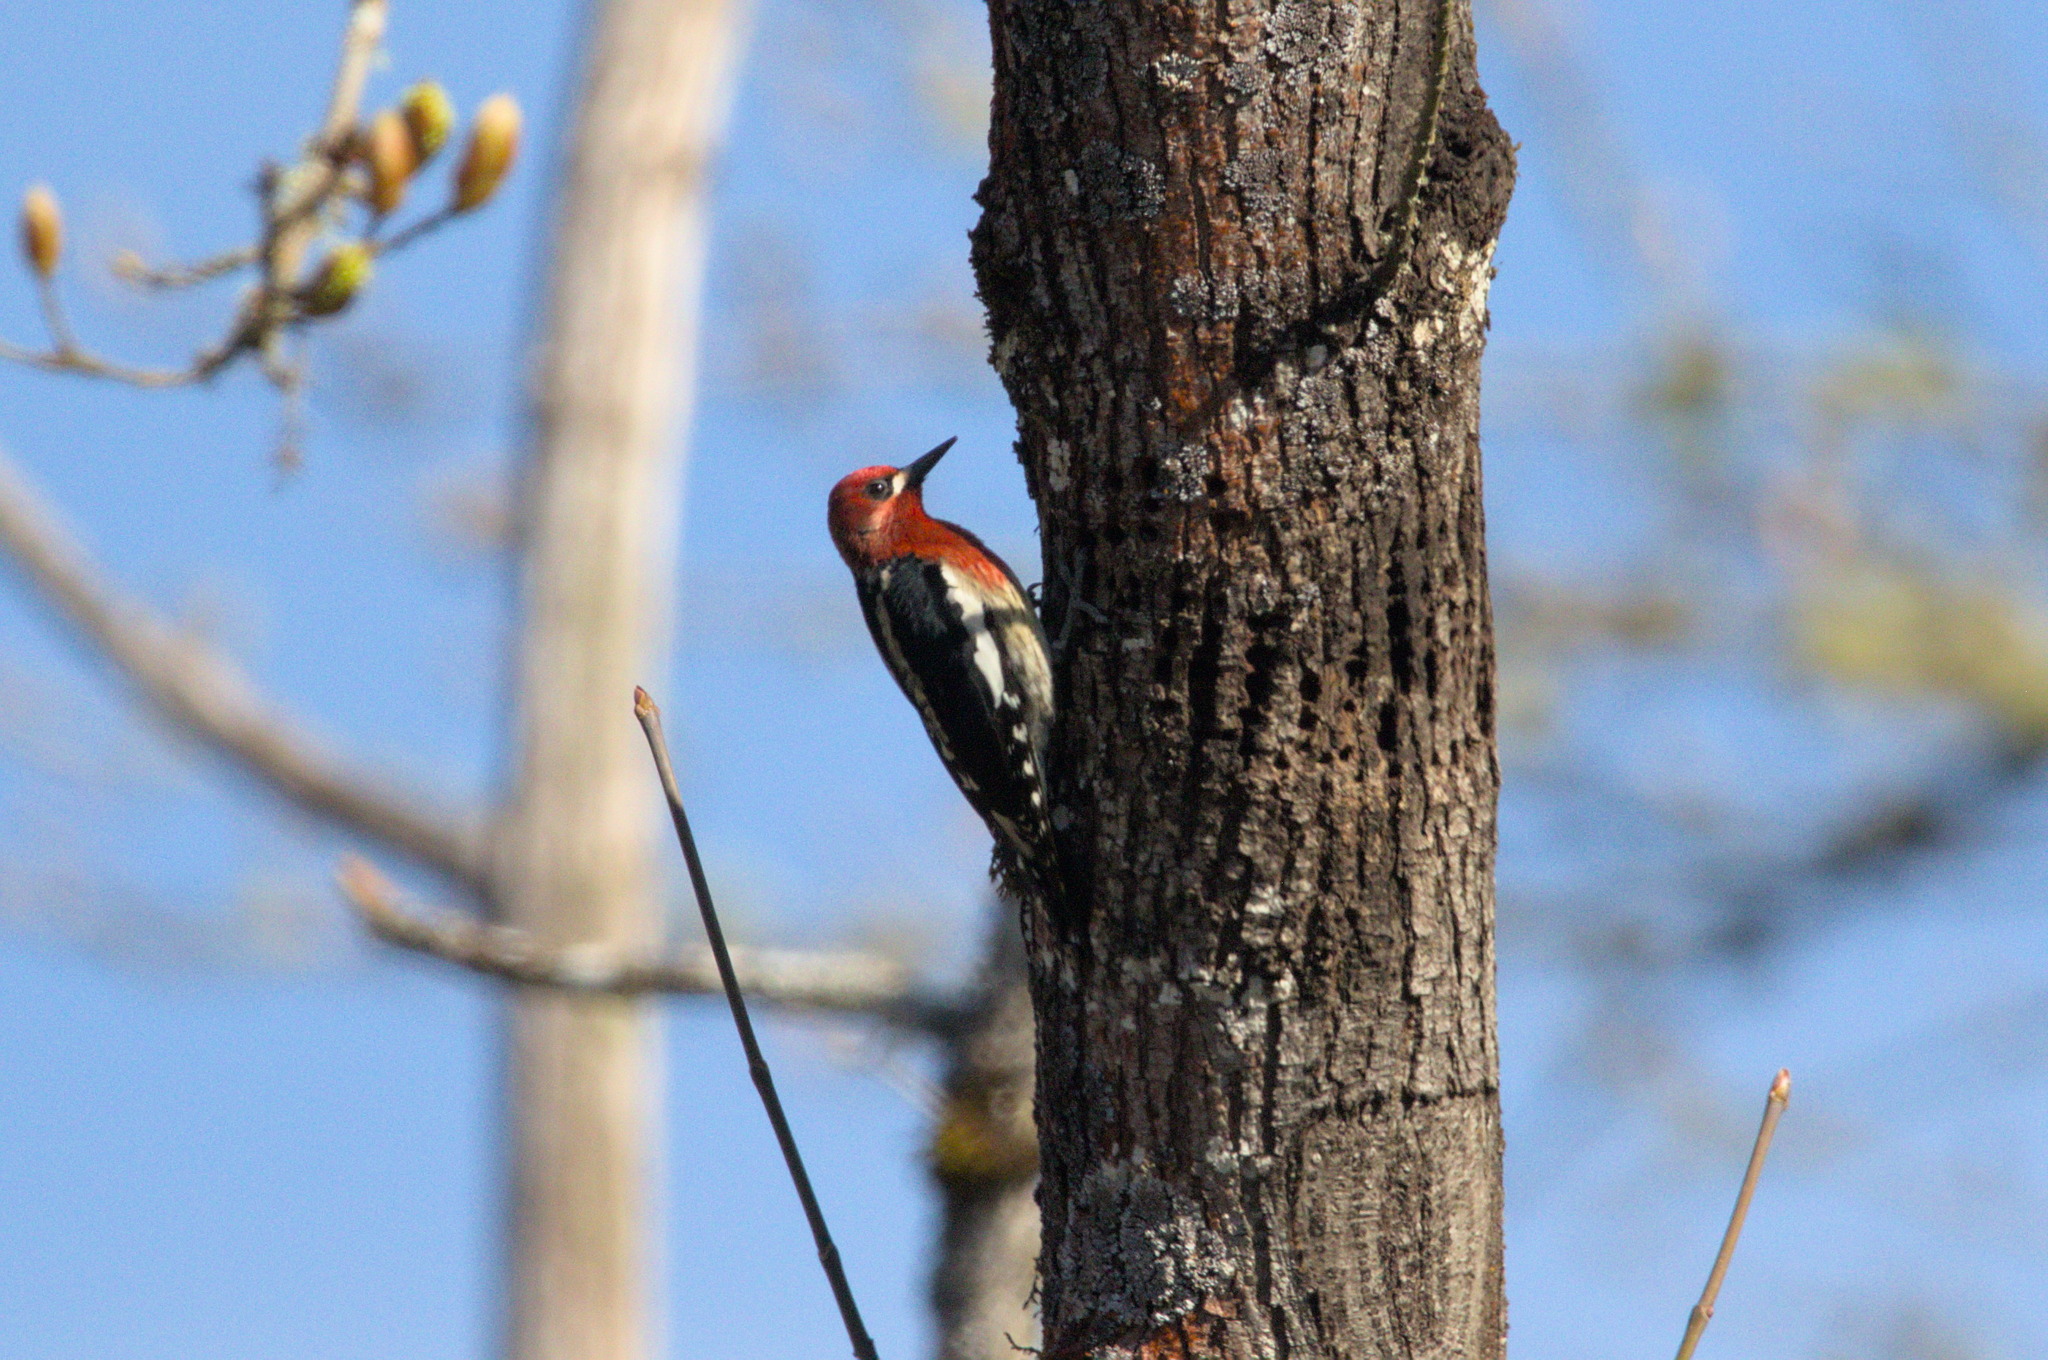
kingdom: Animalia
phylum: Chordata
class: Aves
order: Piciformes
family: Picidae
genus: Sphyrapicus
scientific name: Sphyrapicus ruber
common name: Red-breasted sapsucker
